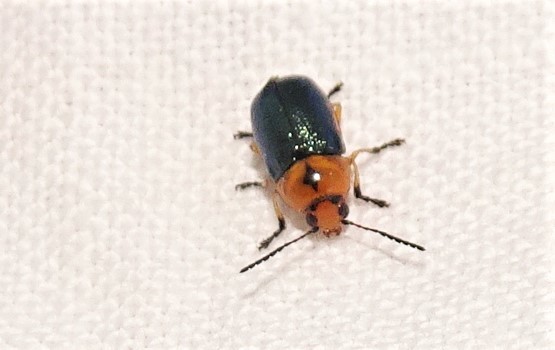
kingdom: Animalia
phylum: Arthropoda
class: Insecta
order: Coleoptera
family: Chrysomelidae
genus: Aporocera
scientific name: Aporocera
